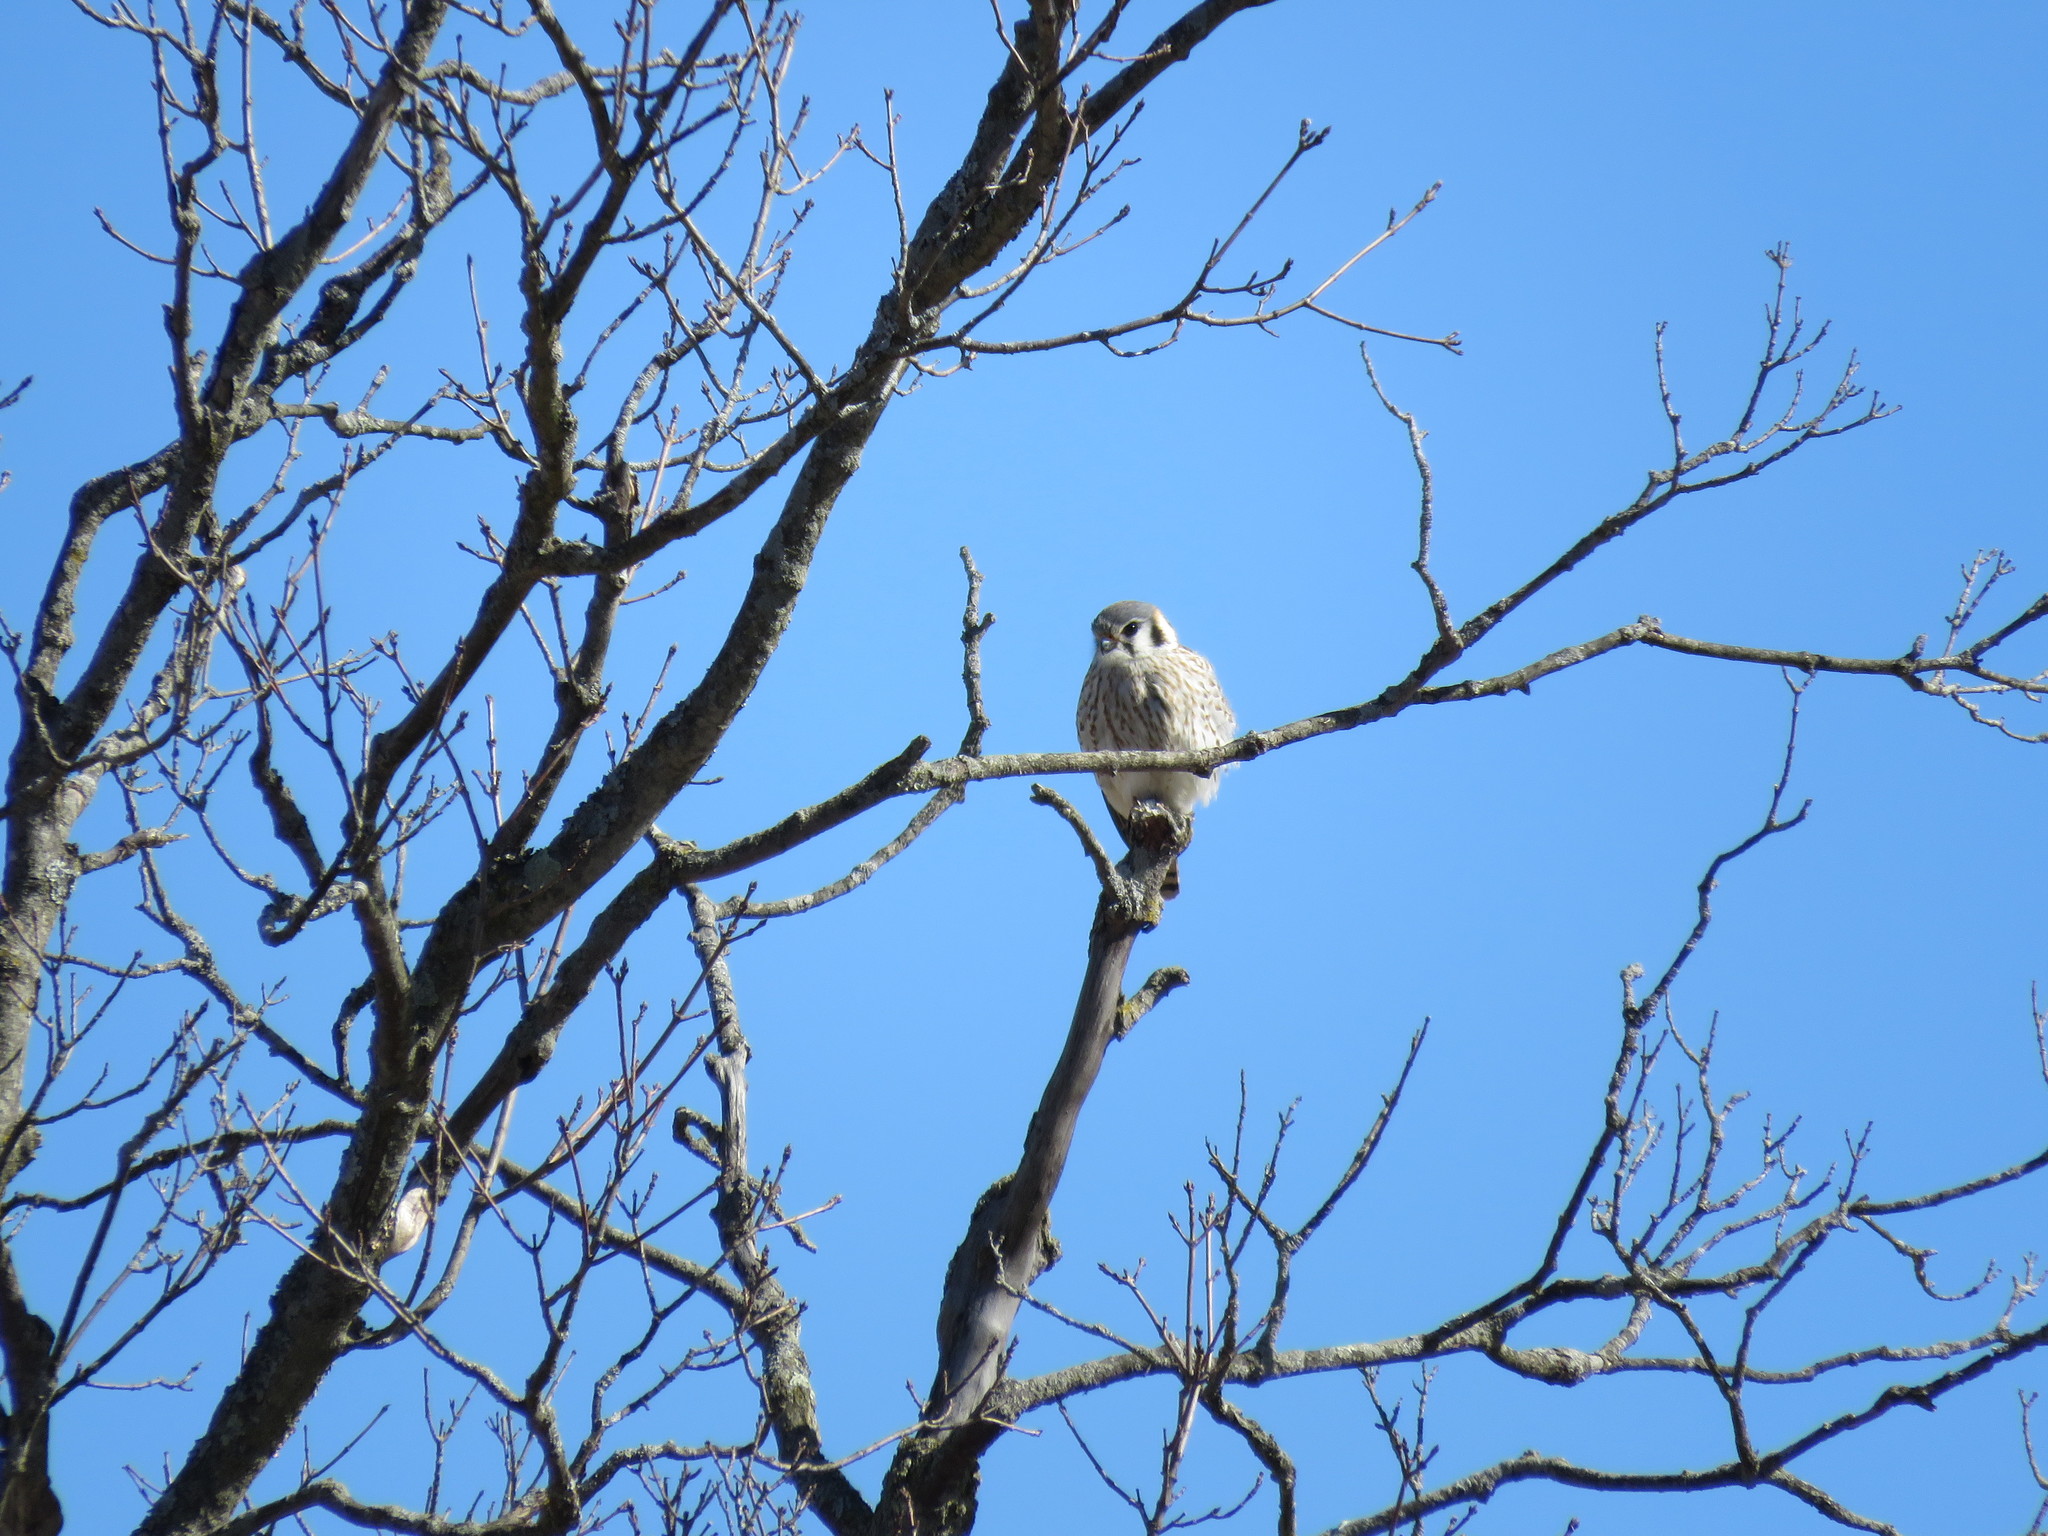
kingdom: Animalia
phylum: Chordata
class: Aves
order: Falconiformes
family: Falconidae
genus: Falco
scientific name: Falco sparverius
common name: American kestrel
